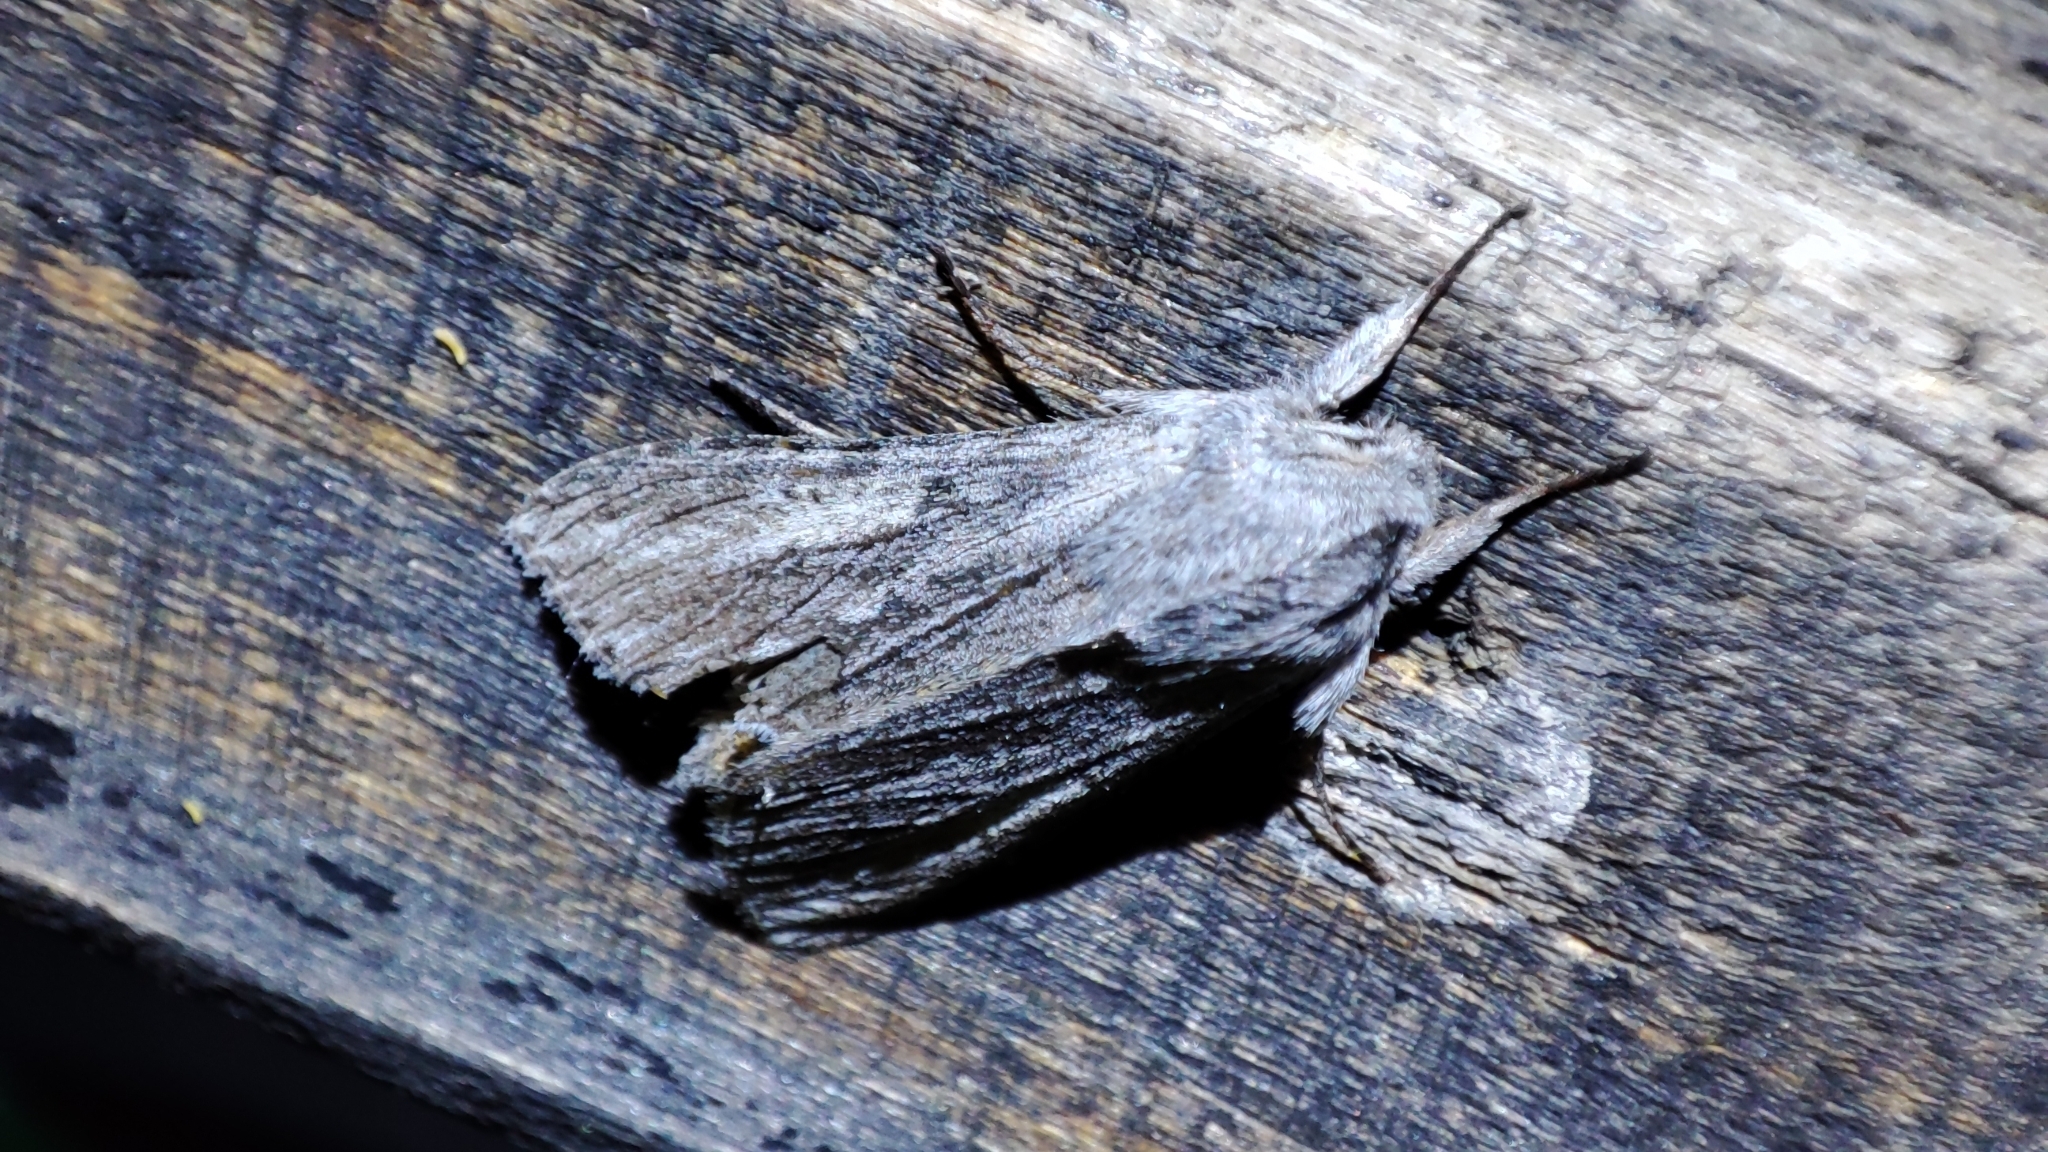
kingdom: Animalia
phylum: Arthropoda
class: Insecta
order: Lepidoptera
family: Noctuidae
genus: Cucullia
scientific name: Cucullia praecana
